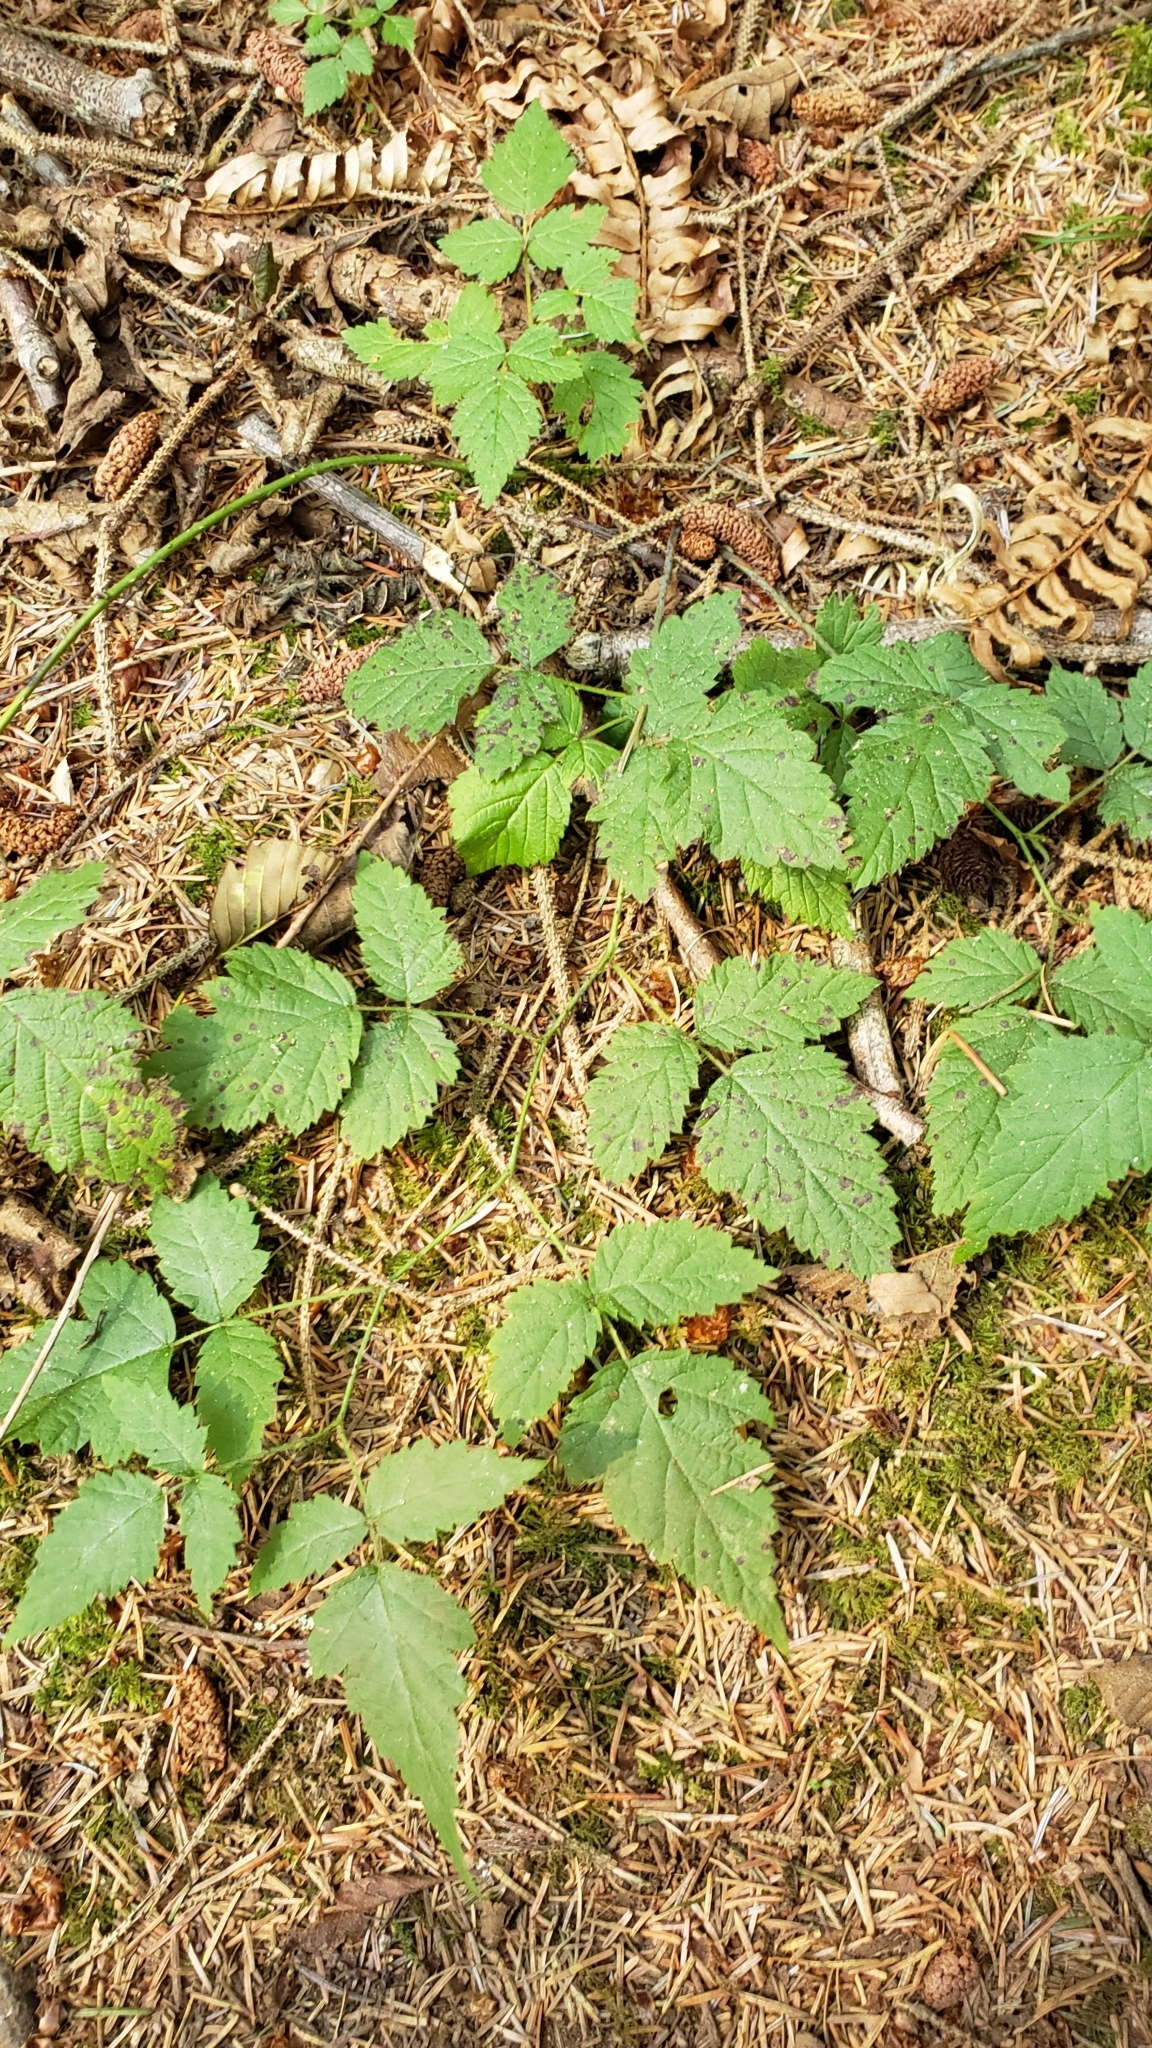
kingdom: Plantae
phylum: Tracheophyta
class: Magnoliopsida
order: Rosales
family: Rosaceae
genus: Rubus
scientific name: Rubus ursinus
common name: Pacific blackberry
